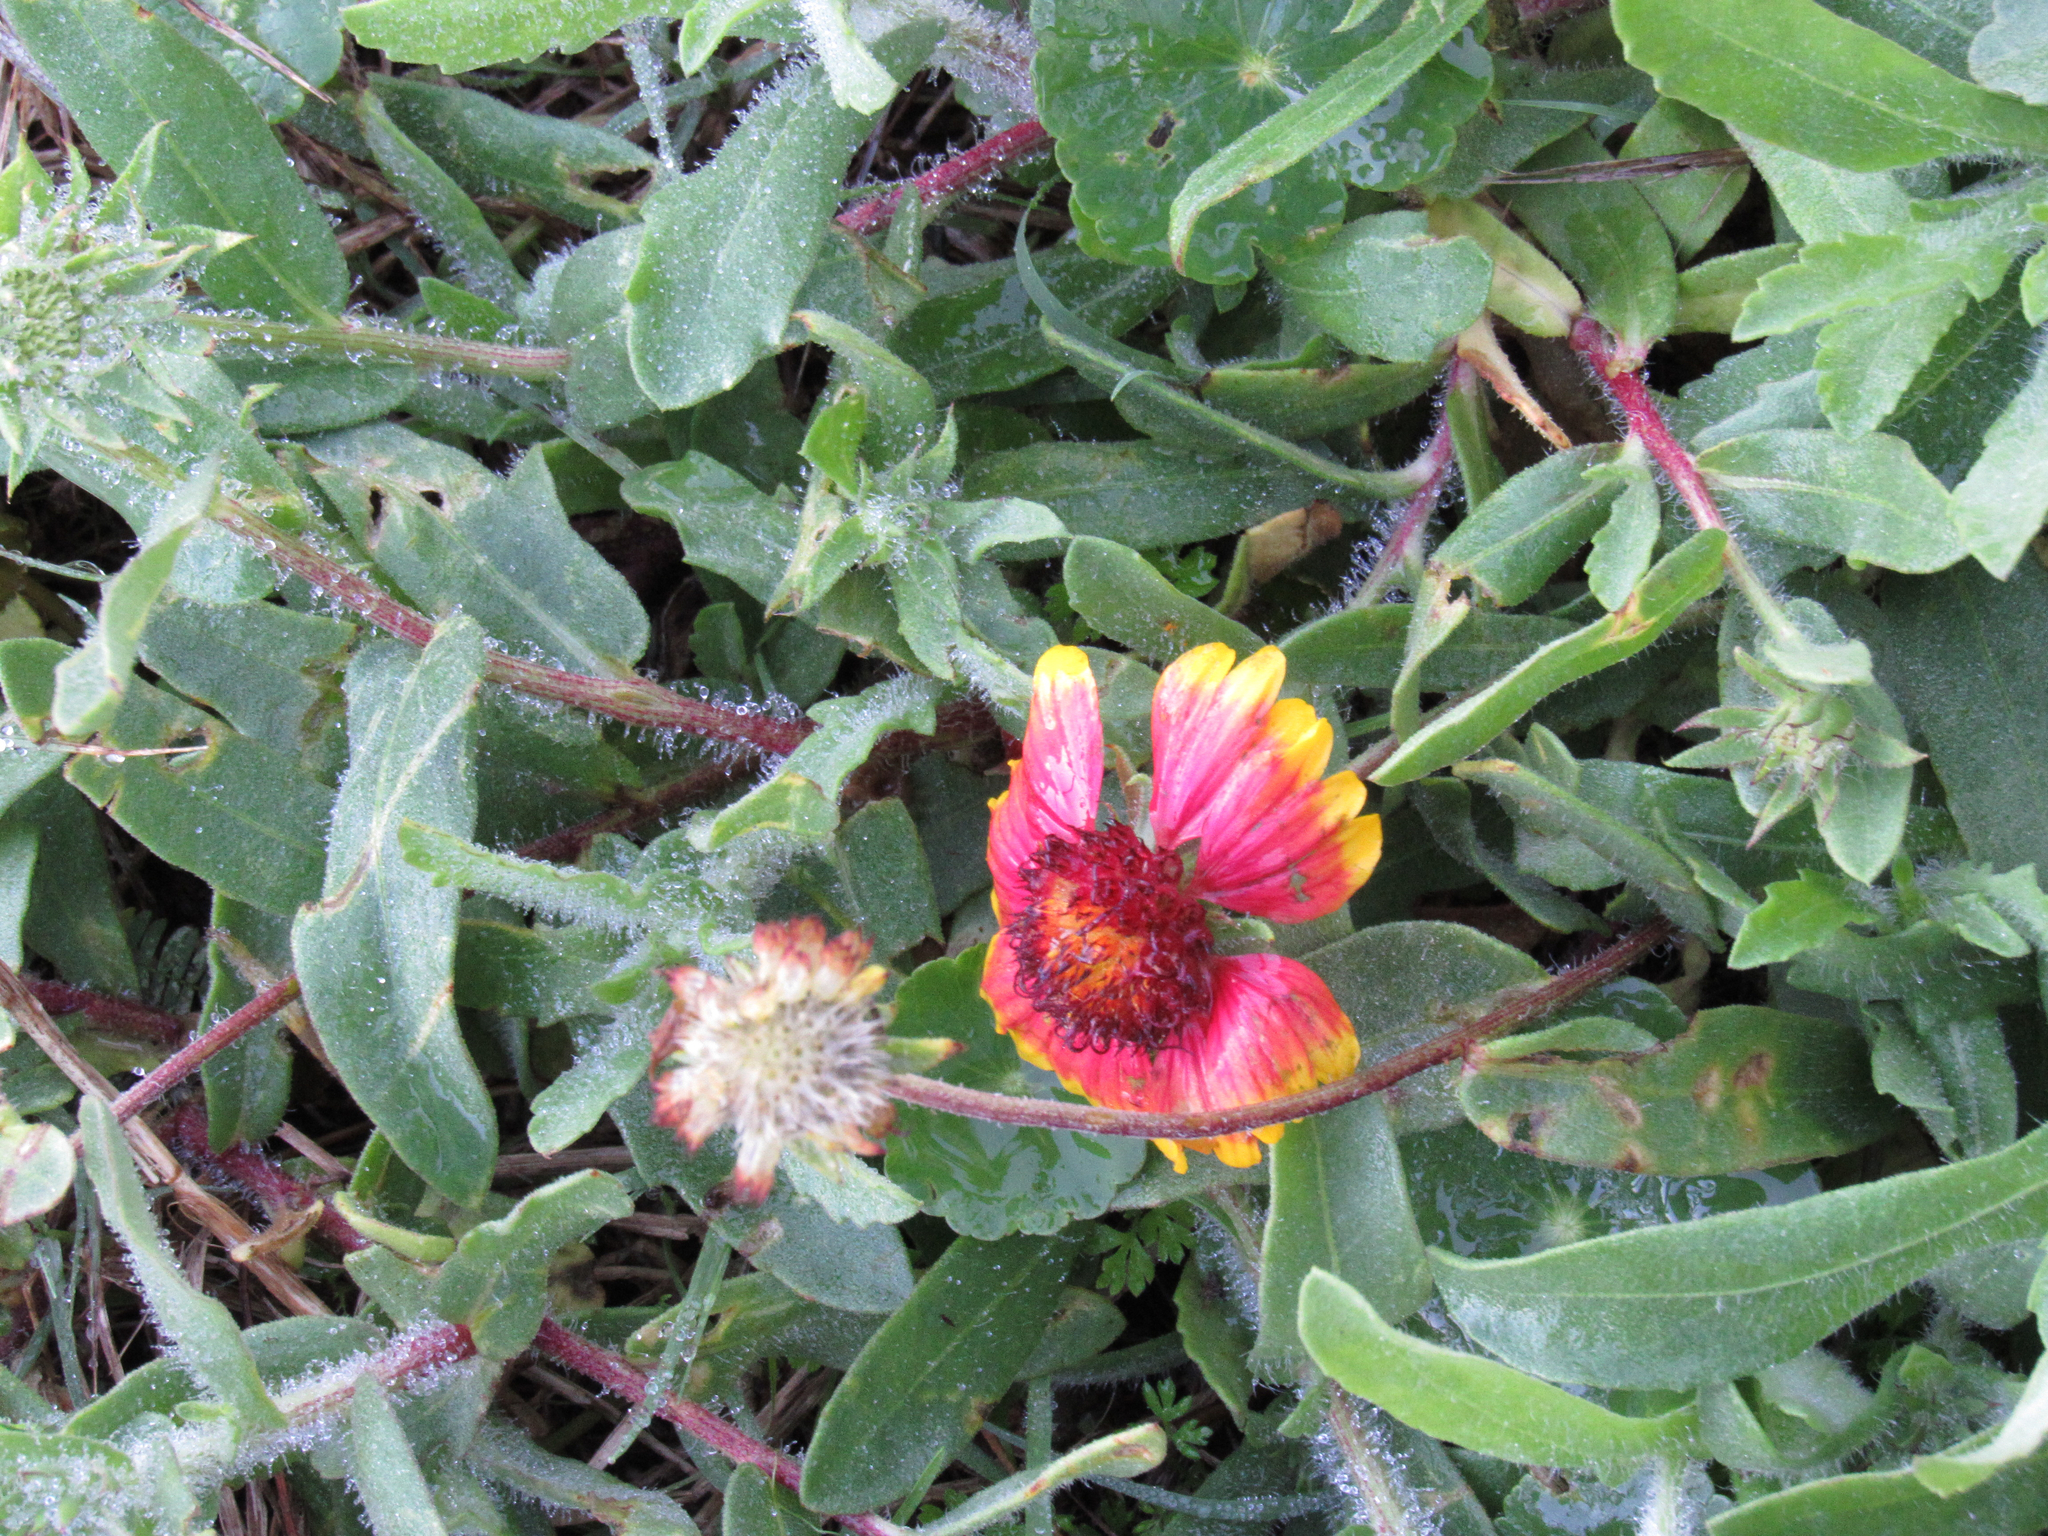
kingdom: Plantae
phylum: Tracheophyta
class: Magnoliopsida
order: Asterales
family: Asteraceae
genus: Gaillardia
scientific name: Gaillardia pulchella
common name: Firewheel
